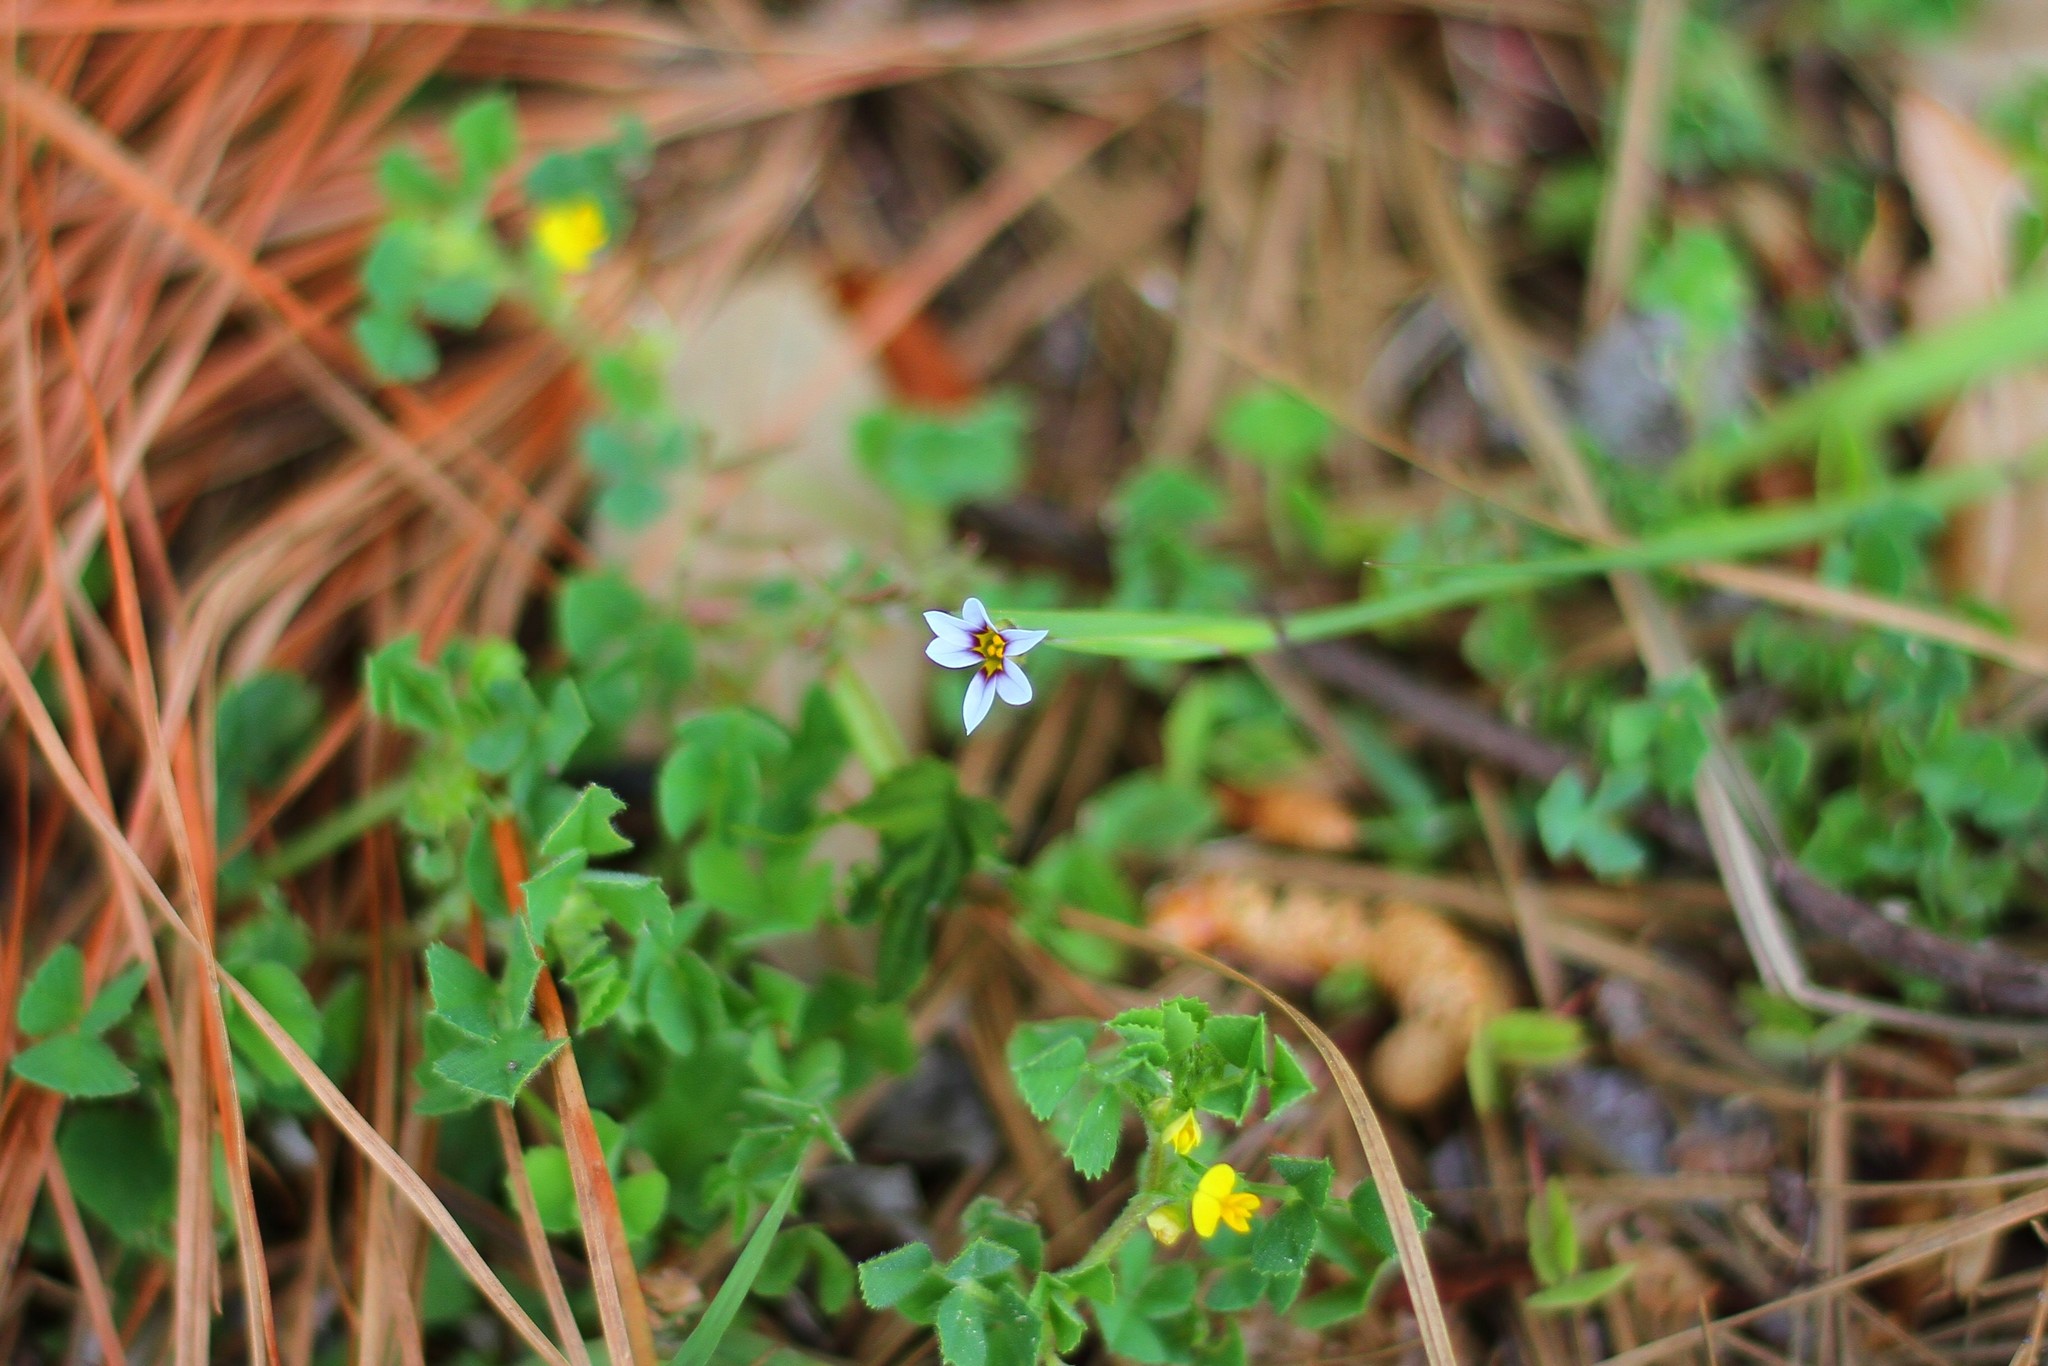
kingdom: Plantae
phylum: Tracheophyta
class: Liliopsida
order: Asparagales
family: Iridaceae
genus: Sisyrinchium
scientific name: Sisyrinchium micranthum
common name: Bermuda pigroot
